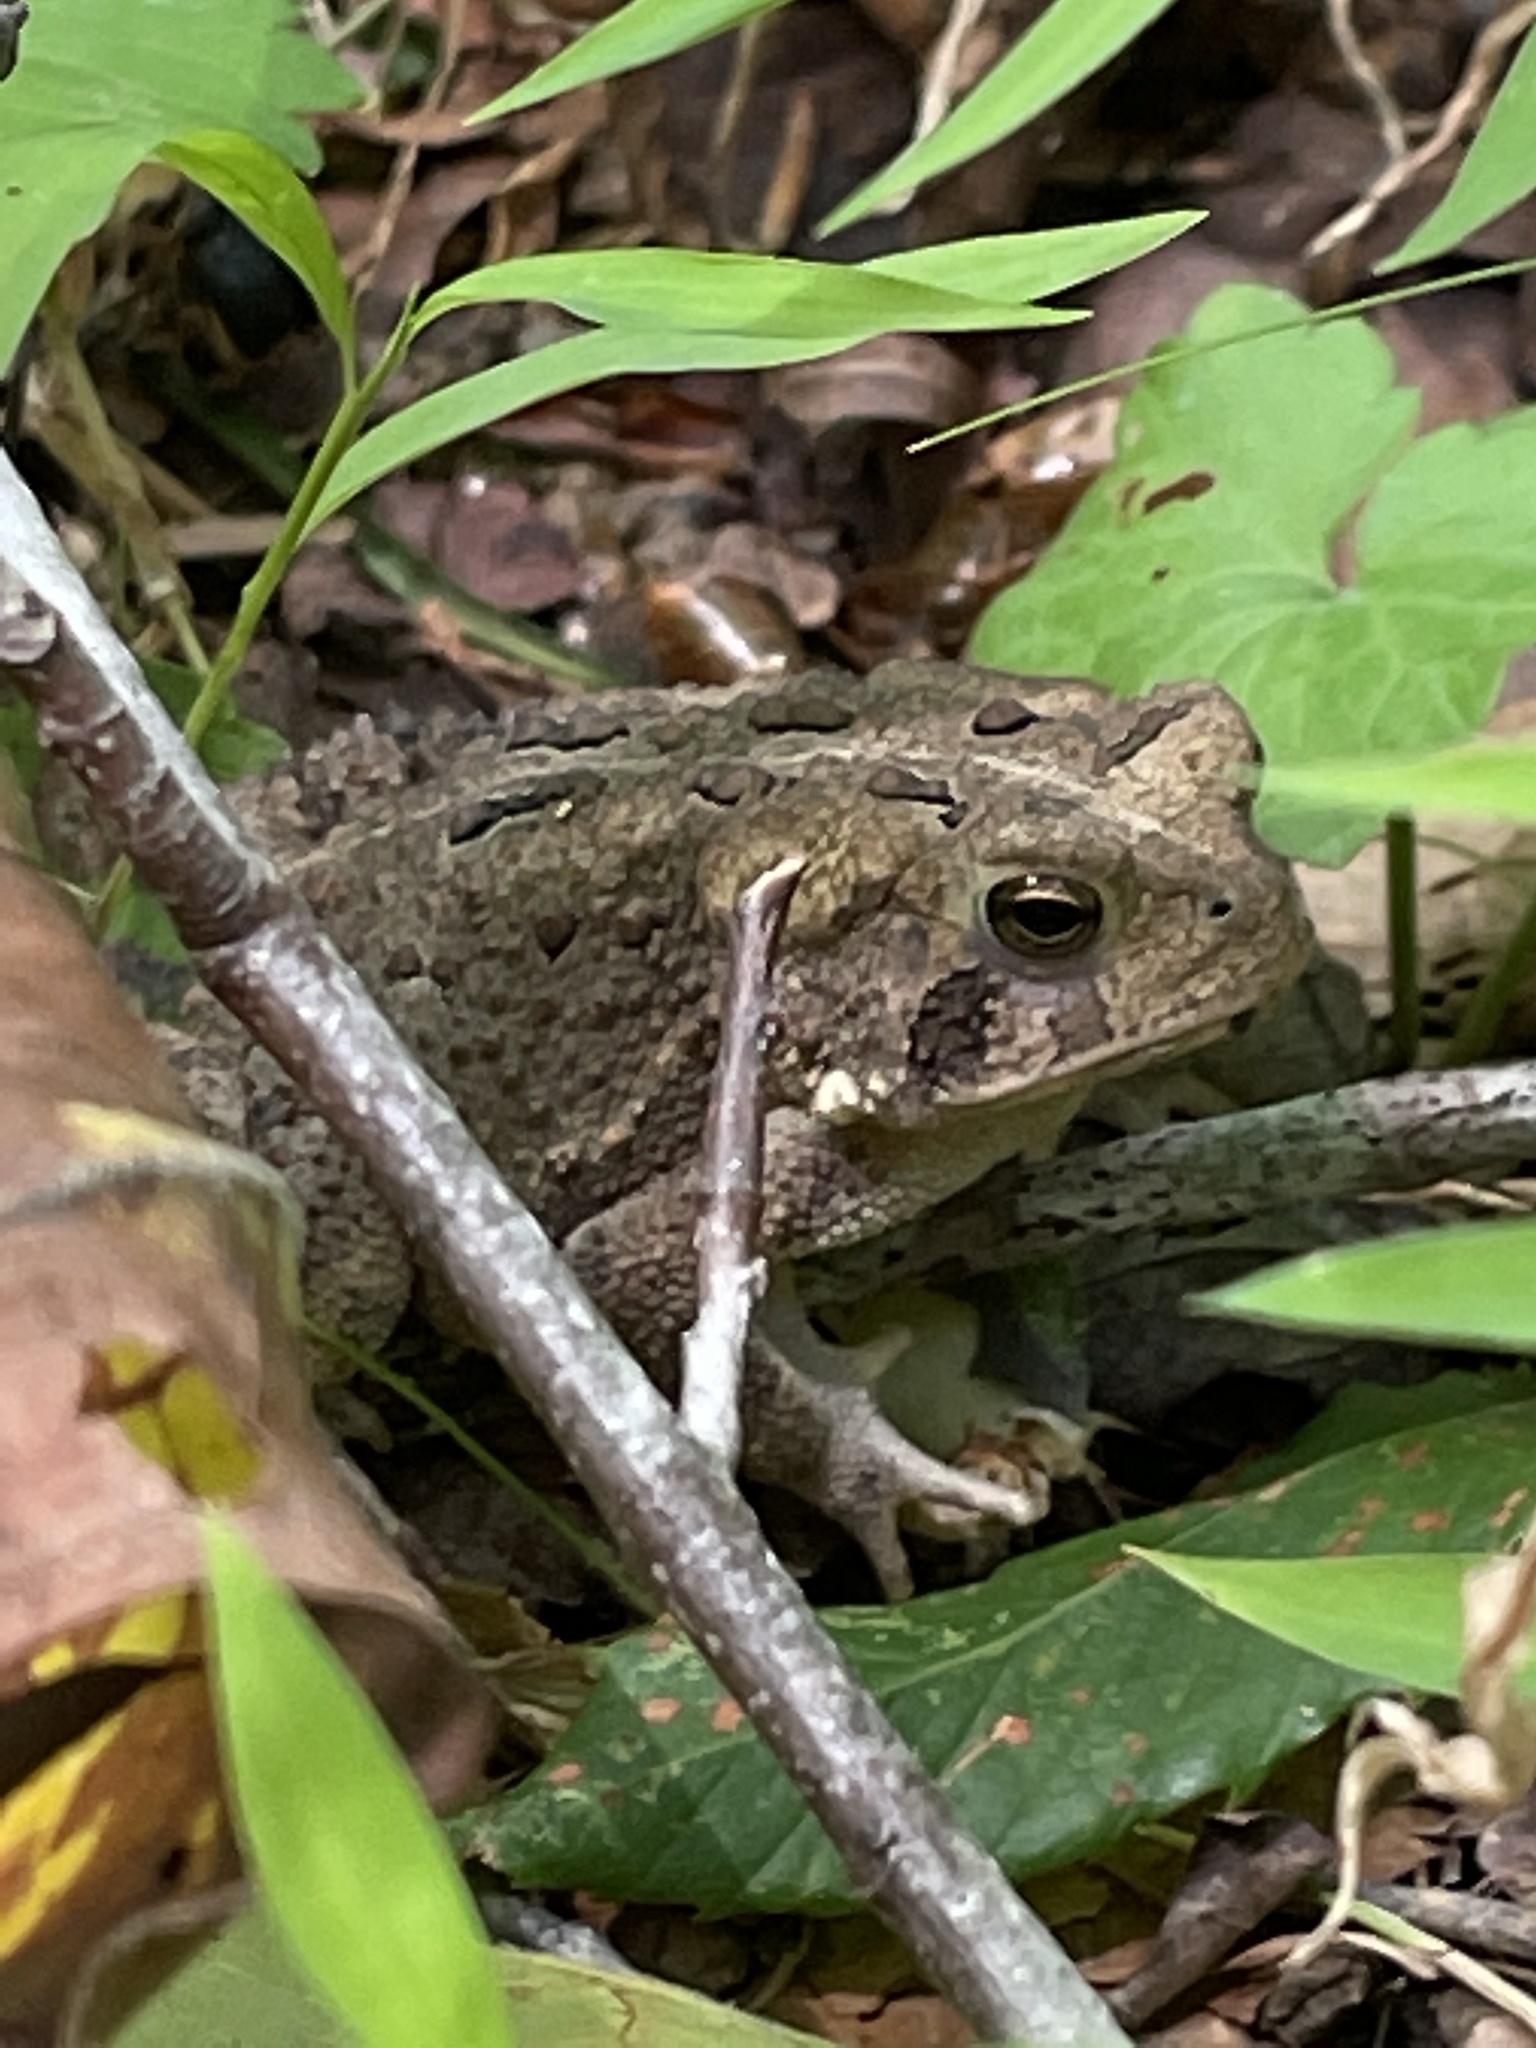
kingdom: Animalia
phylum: Chordata
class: Amphibia
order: Anura
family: Bufonidae
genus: Anaxyrus
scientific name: Anaxyrus americanus
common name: American toad
